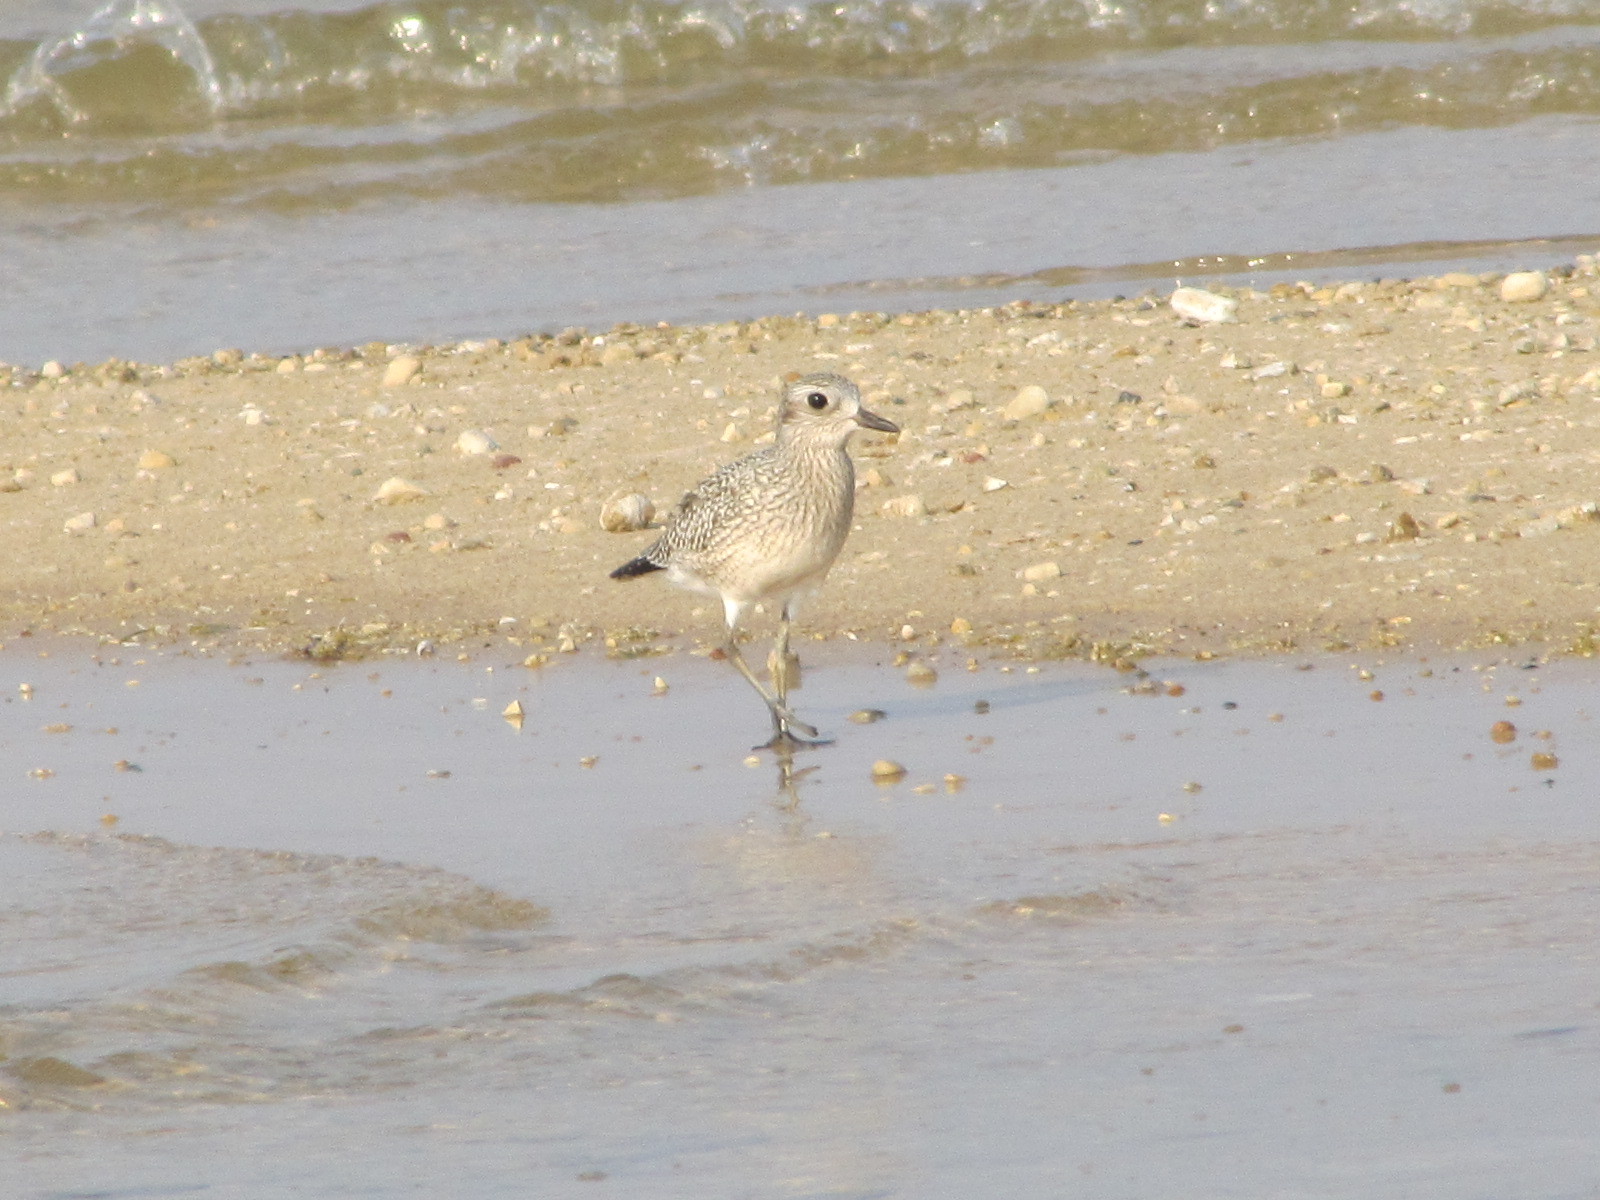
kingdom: Animalia
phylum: Chordata
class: Aves
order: Charadriiformes
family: Charadriidae
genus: Pluvialis
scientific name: Pluvialis squatarola
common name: Grey plover
